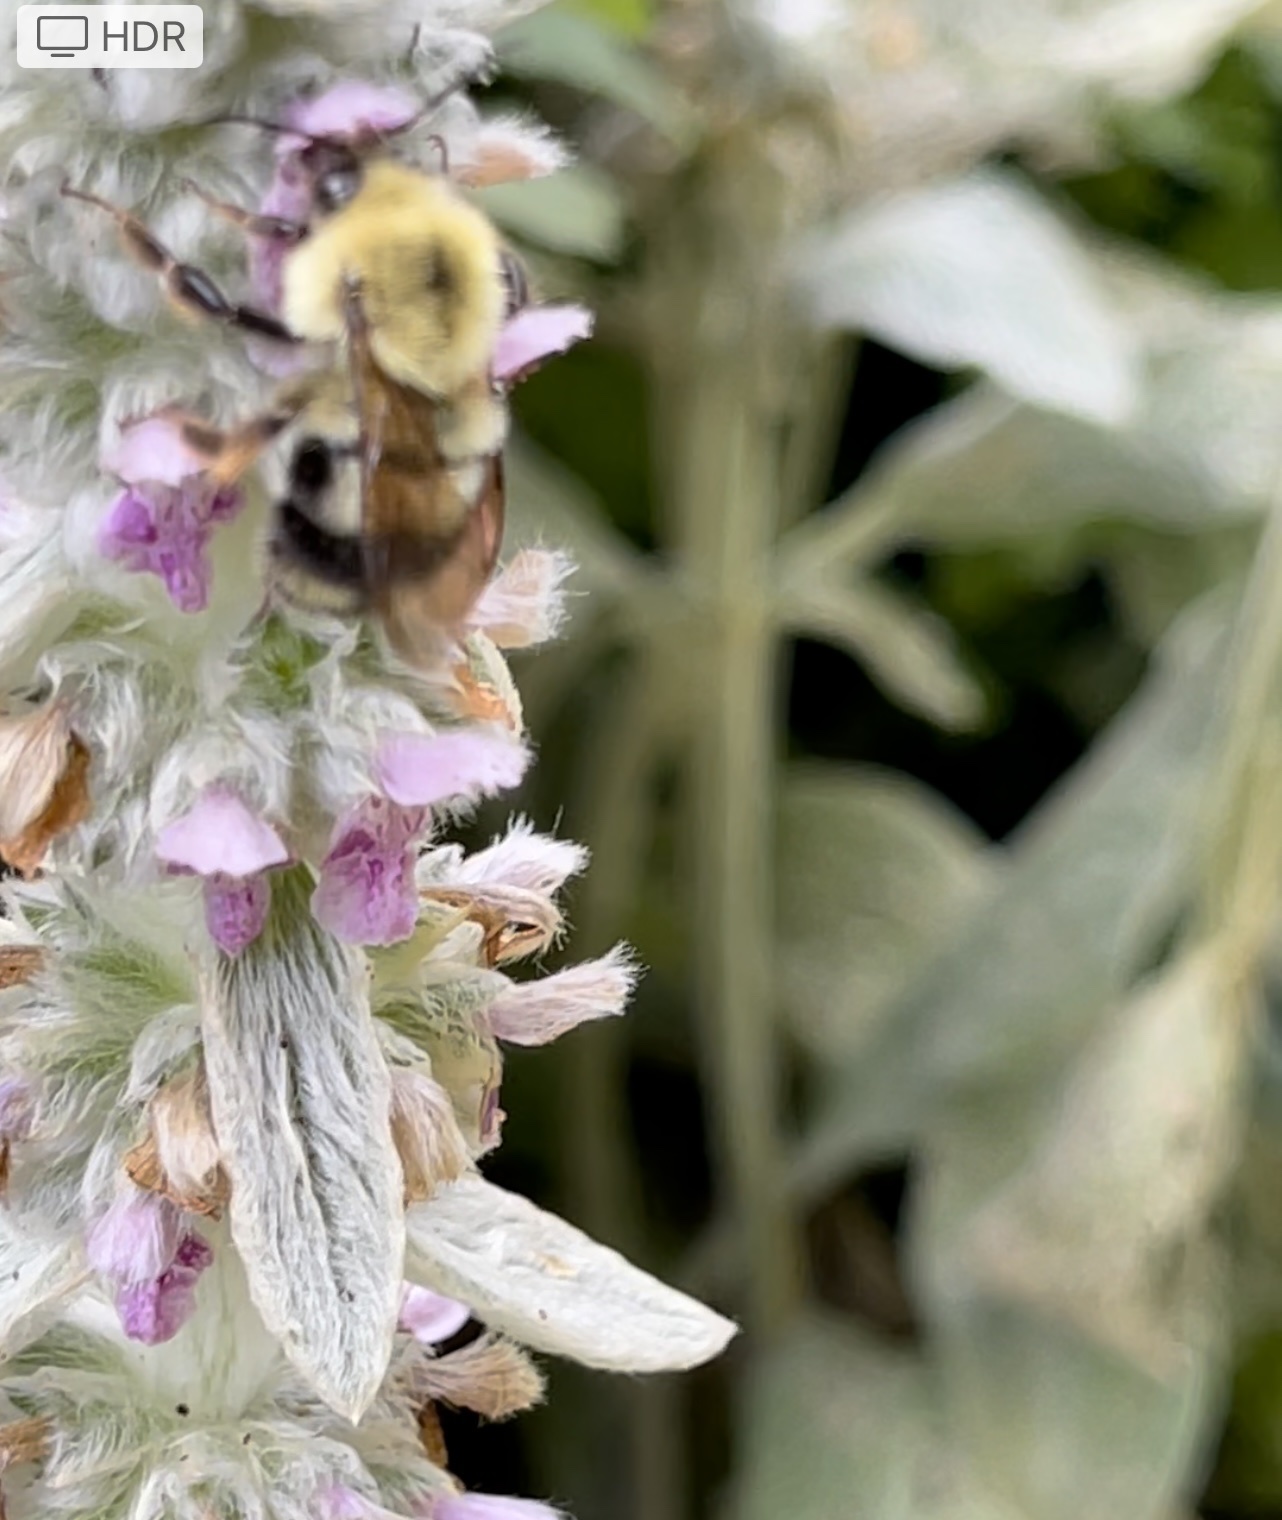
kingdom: Animalia
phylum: Arthropoda
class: Insecta
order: Hymenoptera
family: Apidae
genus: Bombus
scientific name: Bombus bimaculatus
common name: Two-spotted bumble bee
